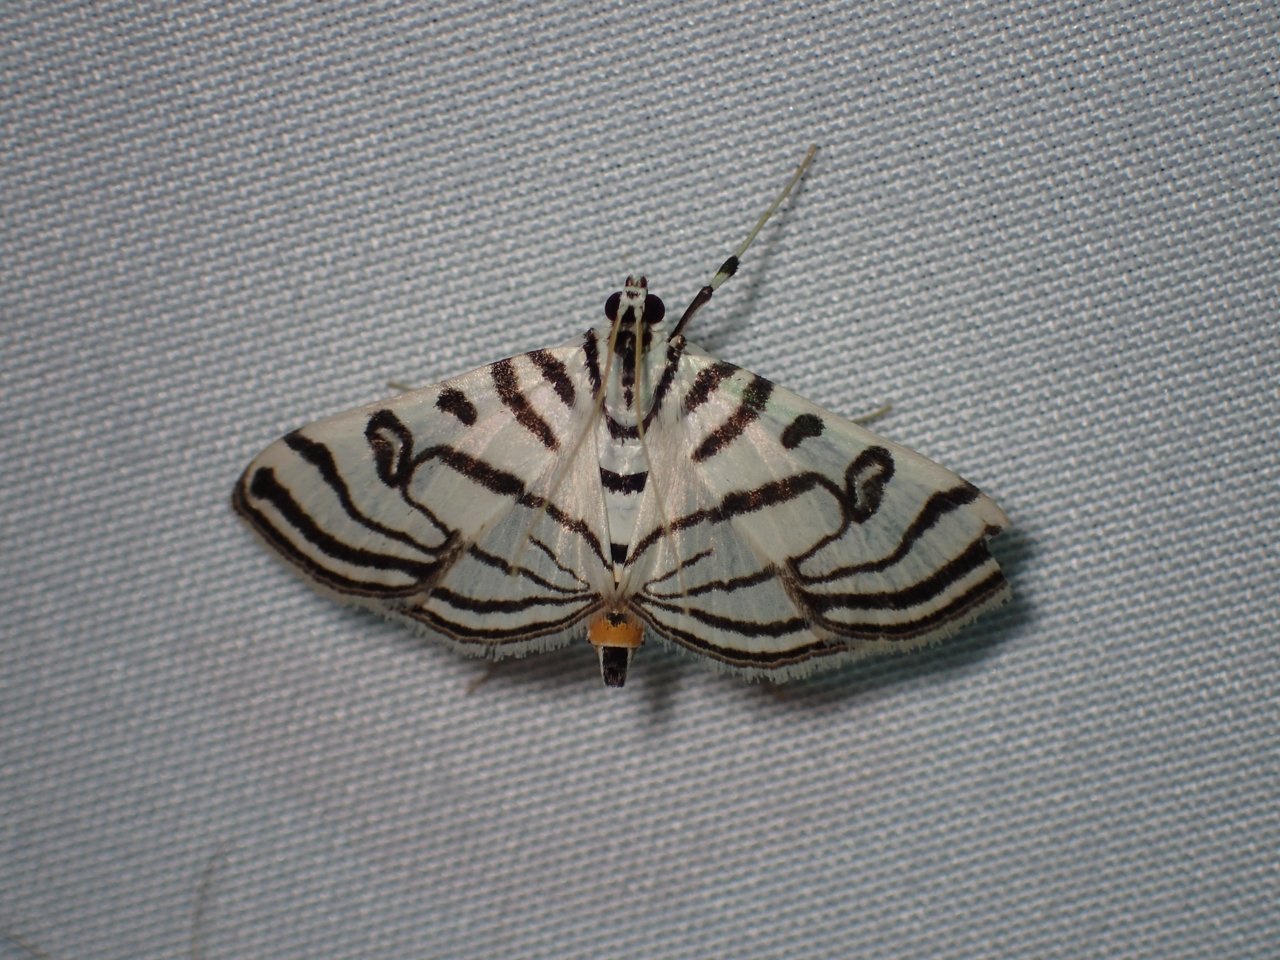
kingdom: Animalia
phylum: Arthropoda
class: Insecta
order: Lepidoptera
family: Crambidae
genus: Conchylodes
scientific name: Conchylodes ovulalis
